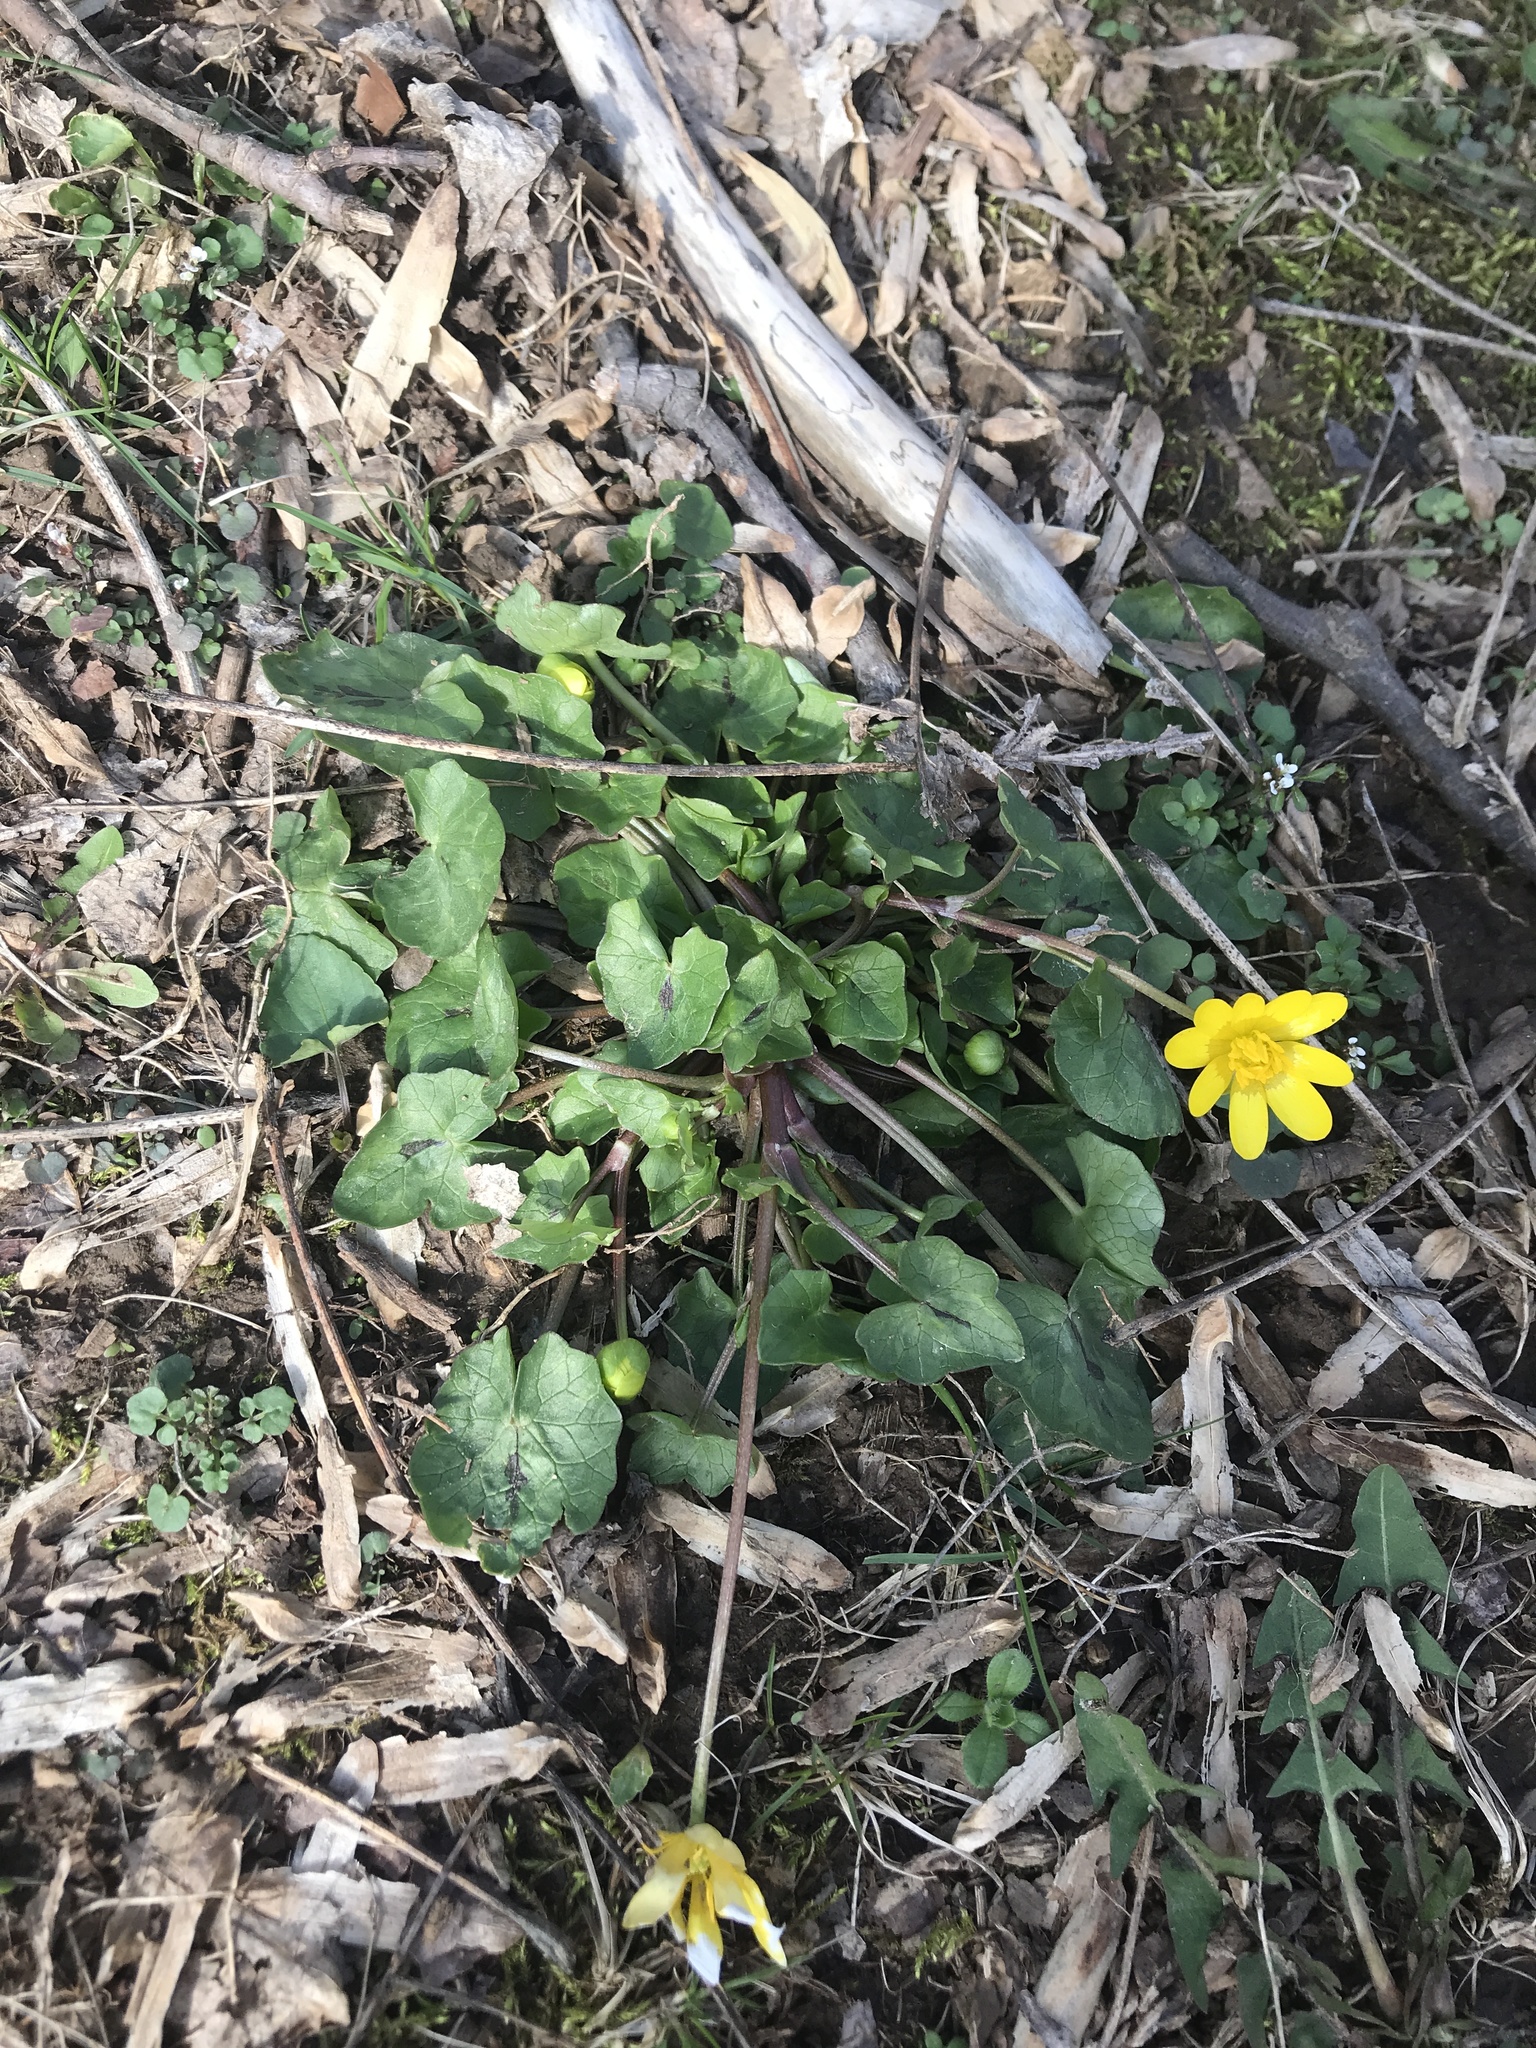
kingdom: Plantae
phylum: Tracheophyta
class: Magnoliopsida
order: Ranunculales
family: Ranunculaceae
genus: Ficaria
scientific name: Ficaria verna
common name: Lesser celandine
